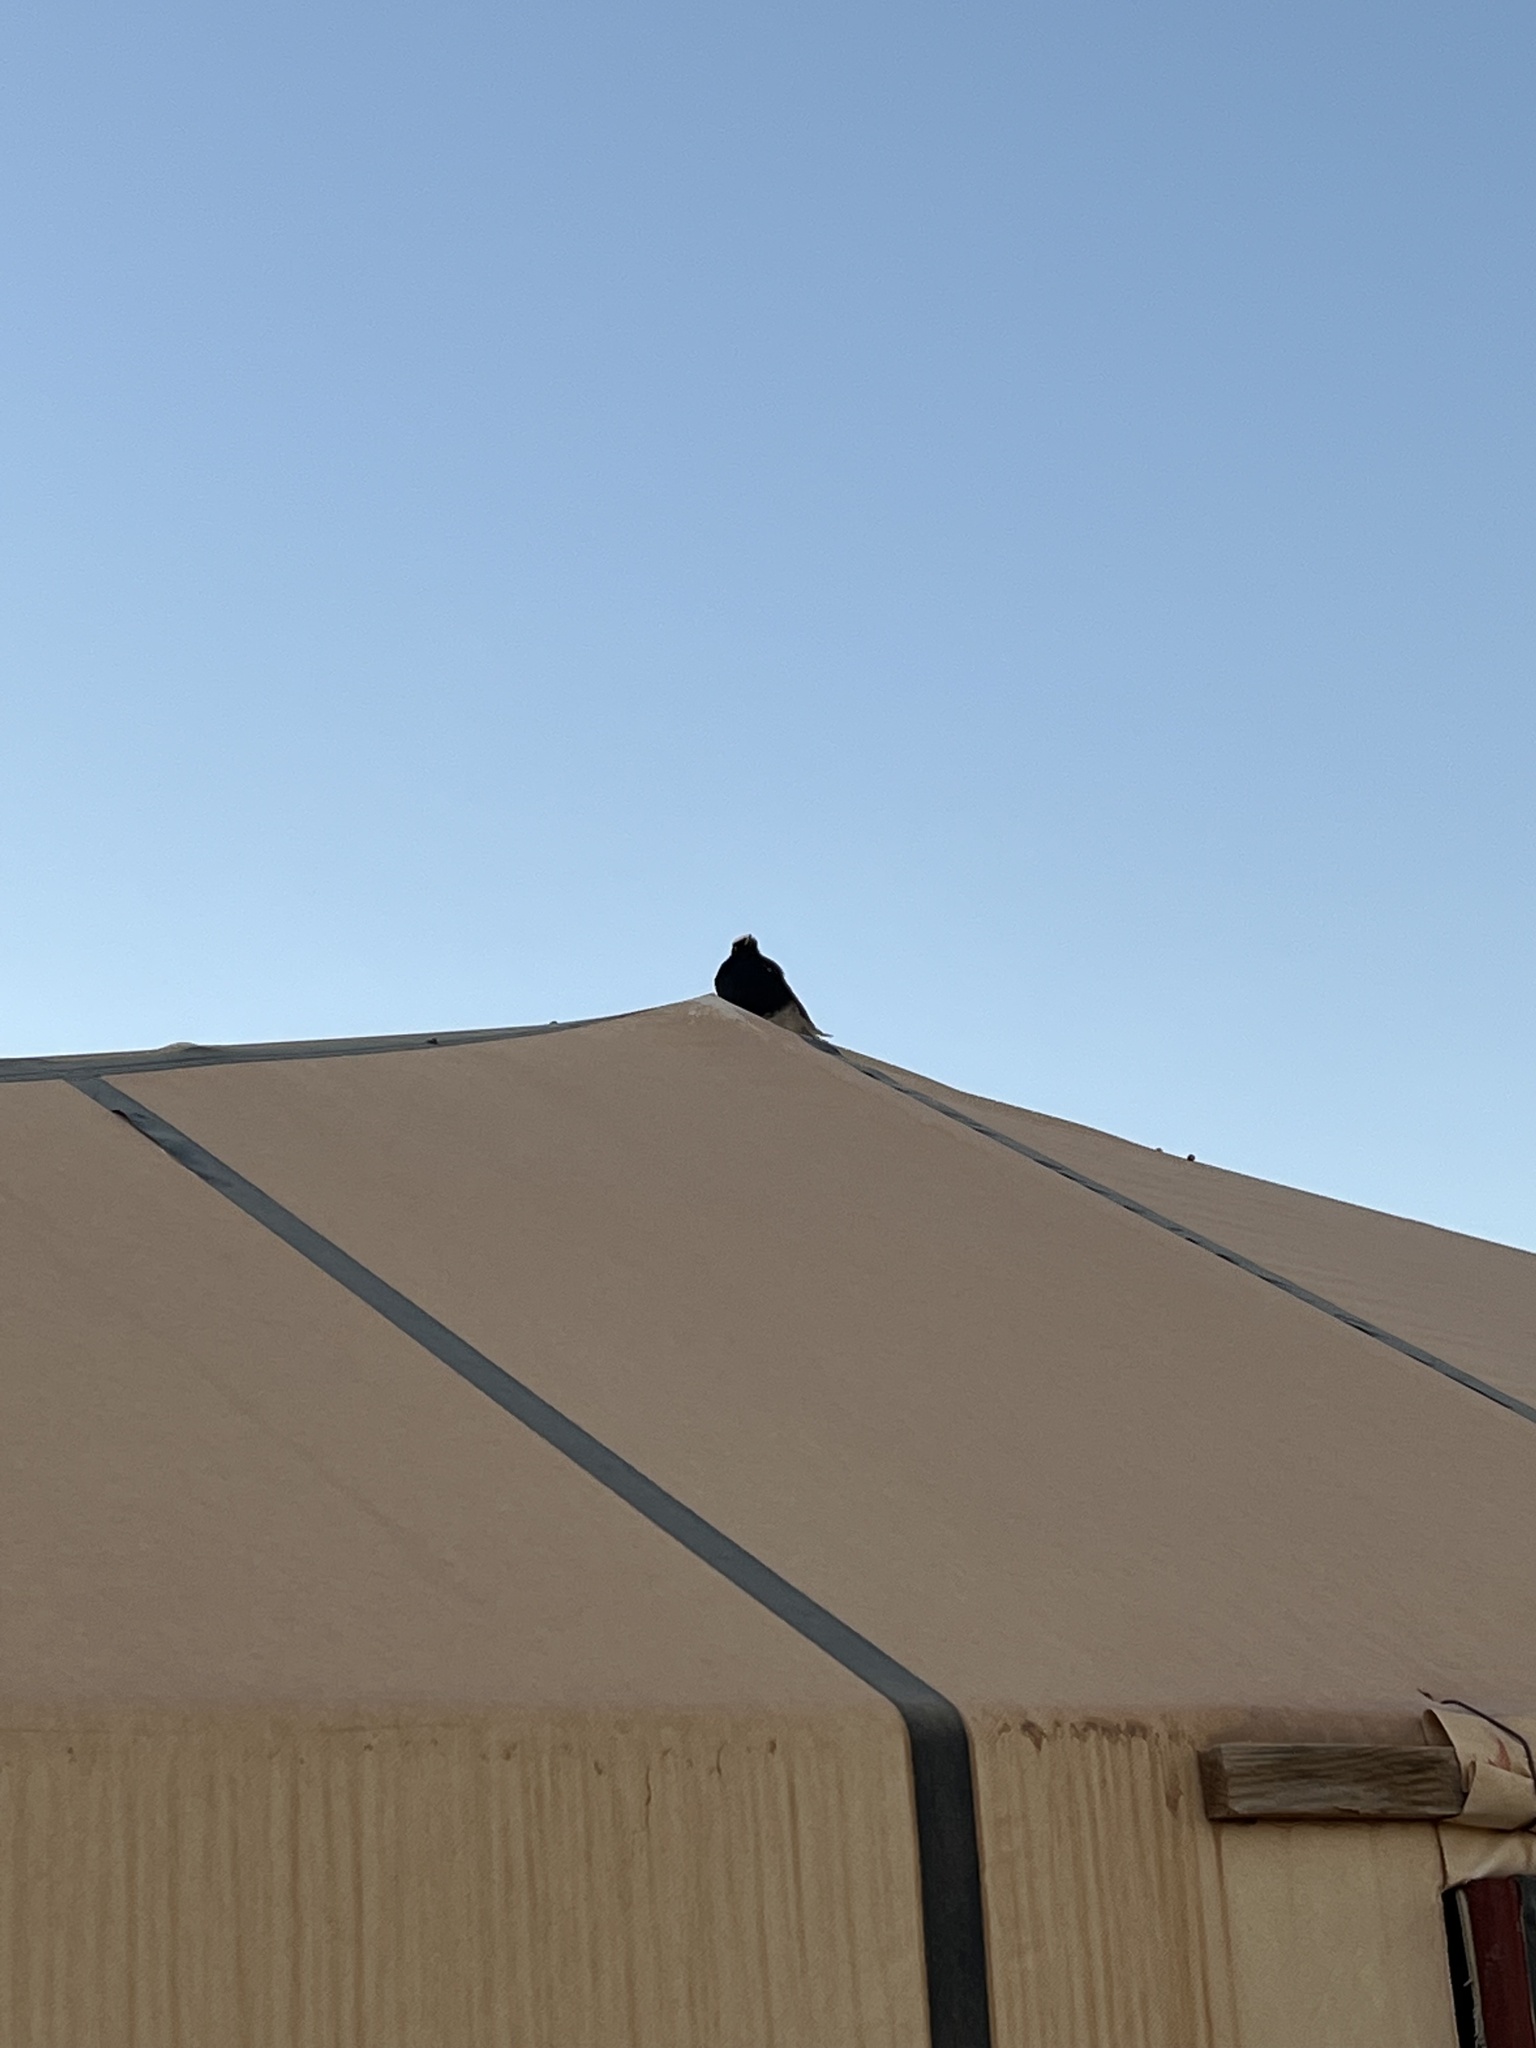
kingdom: Animalia
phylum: Chordata
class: Aves
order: Passeriformes
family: Muscicapidae
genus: Oenanthe
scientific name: Oenanthe leucopyga
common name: White-crowned wheatear
